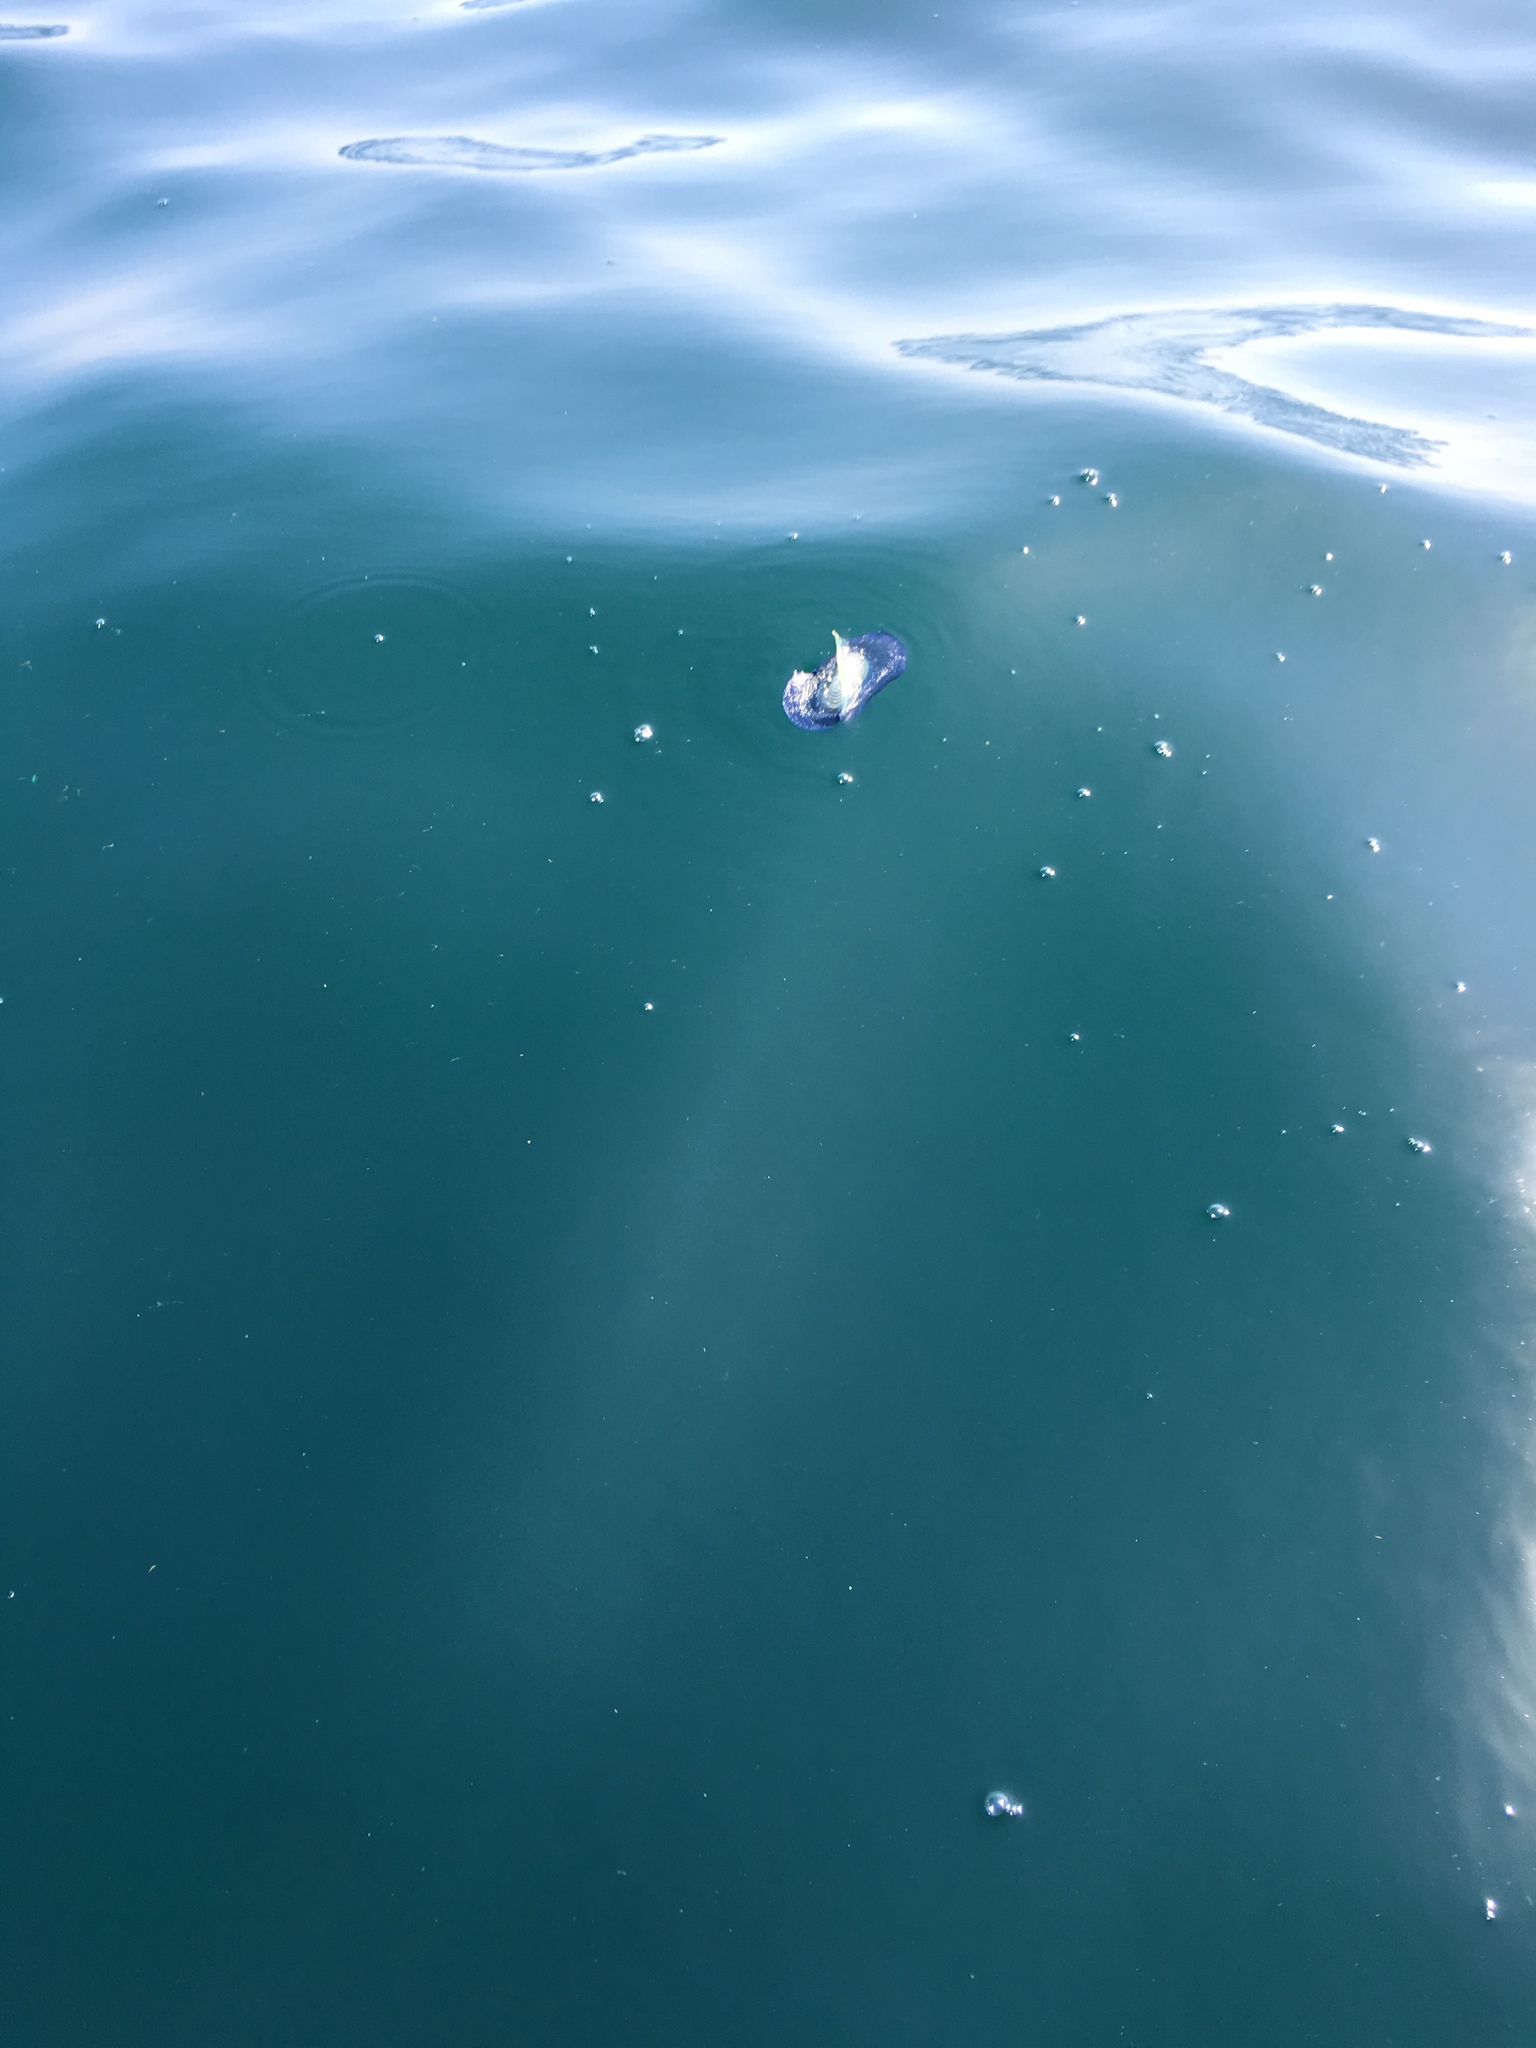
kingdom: Animalia
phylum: Cnidaria
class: Hydrozoa
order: Anthoathecata
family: Porpitidae
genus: Velella
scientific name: Velella velella
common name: By-the-wind-sailor
